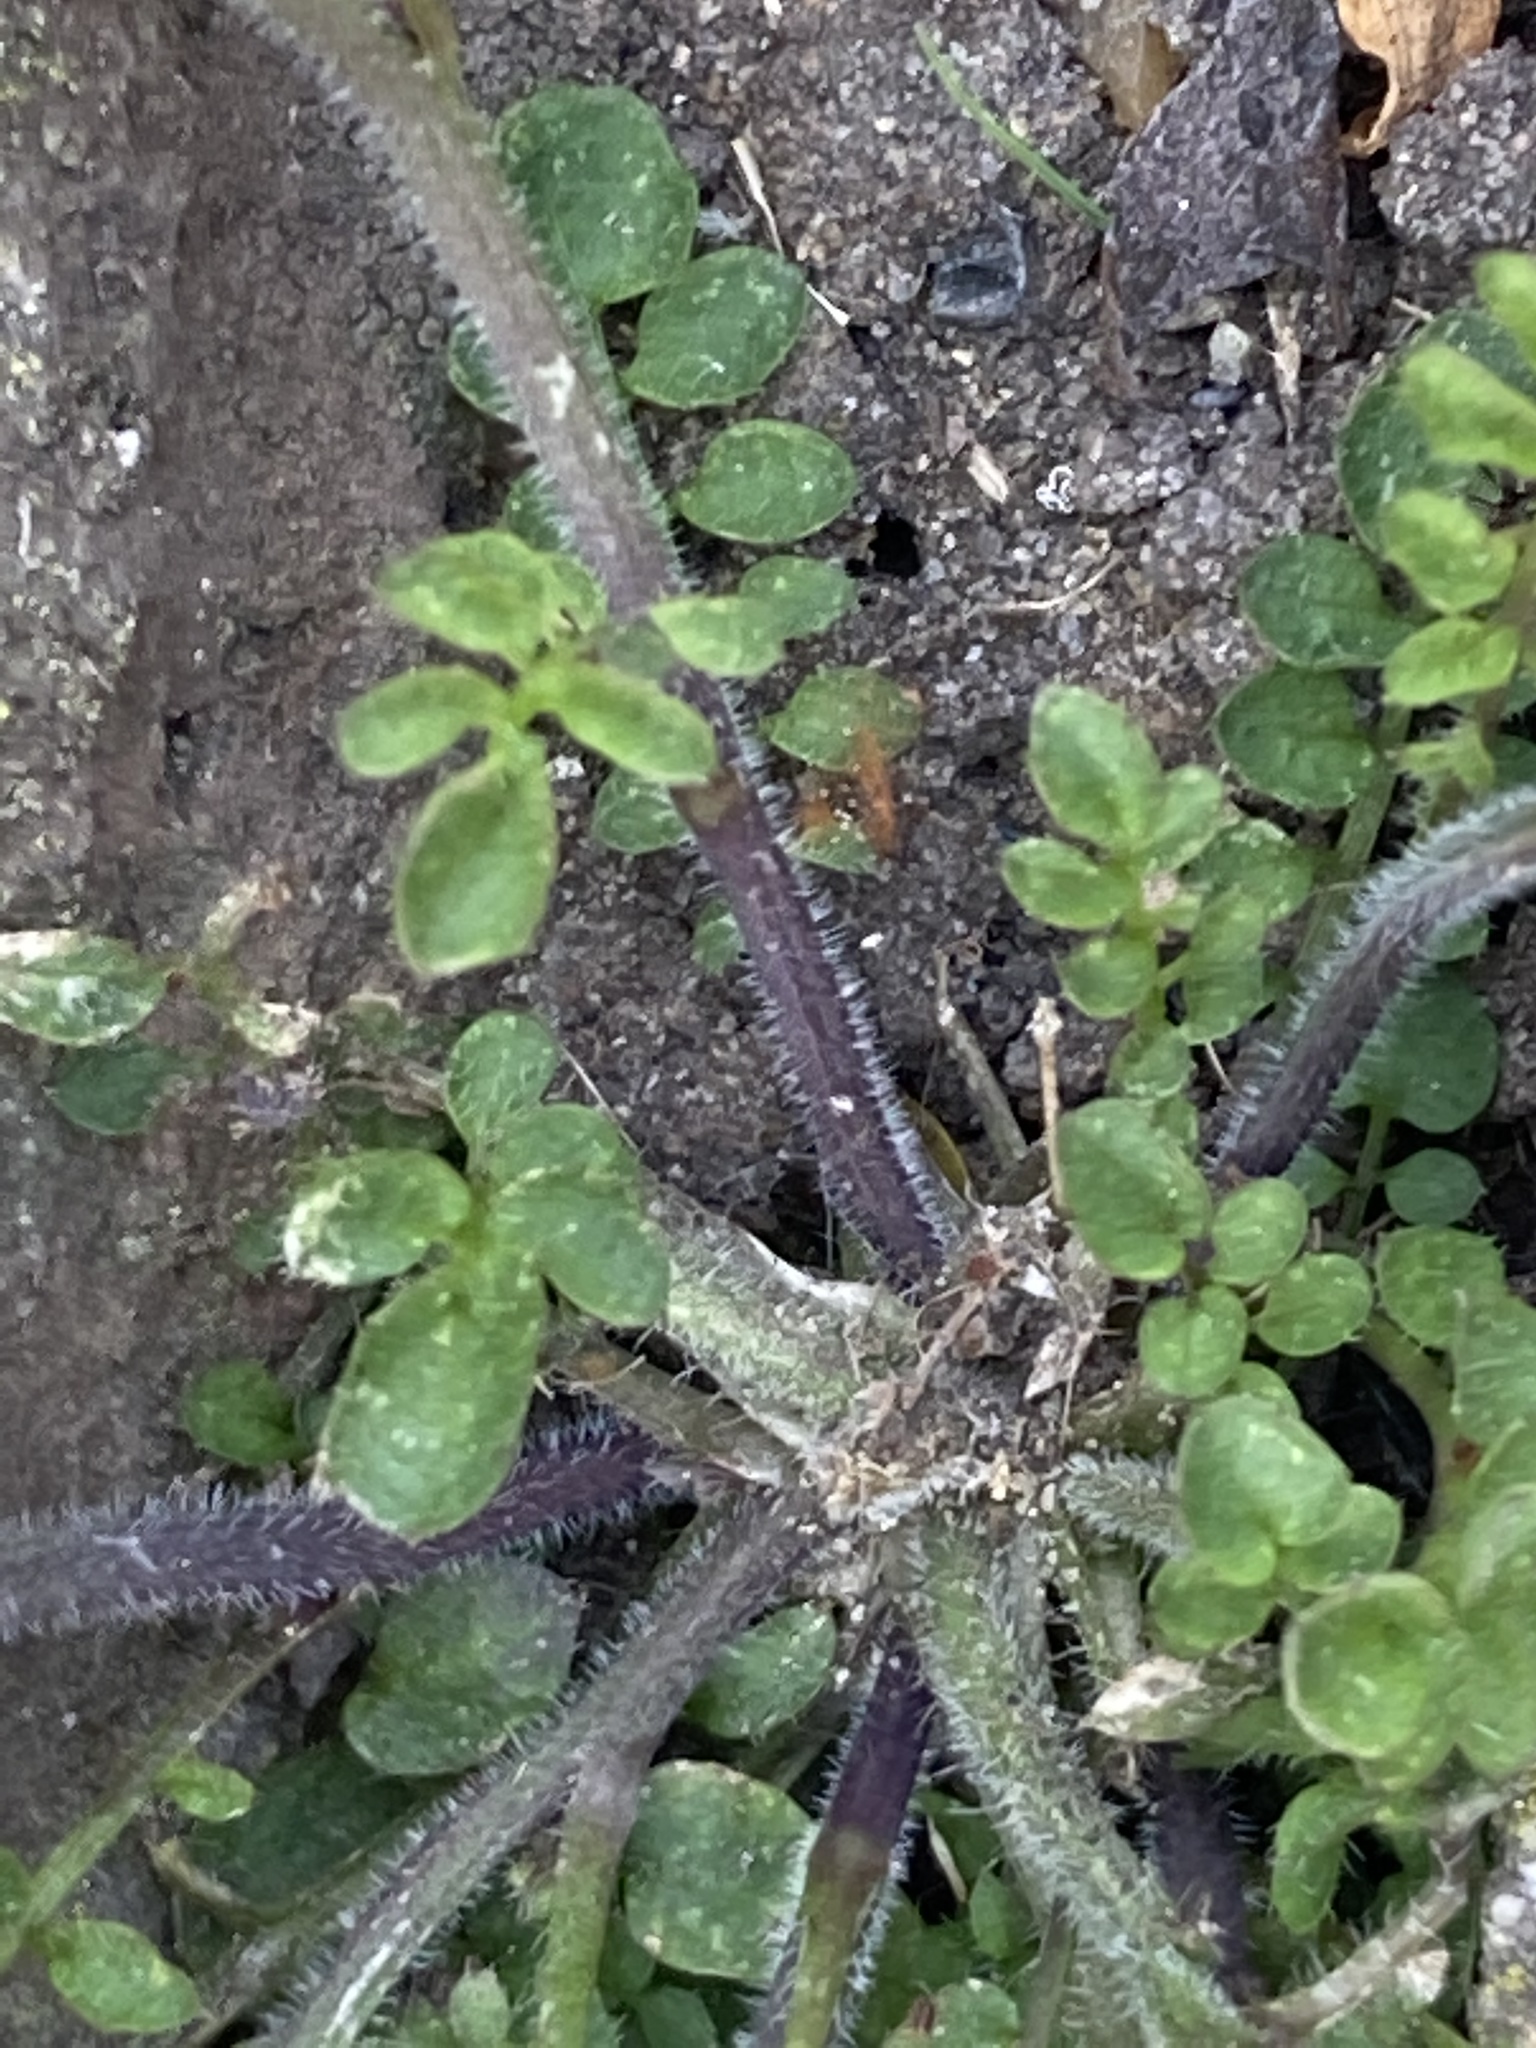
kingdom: Plantae
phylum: Tracheophyta
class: Magnoliopsida
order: Brassicales
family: Brassicaceae
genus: Cardamine
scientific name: Cardamine flexuosa
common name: Woodland bittercress
